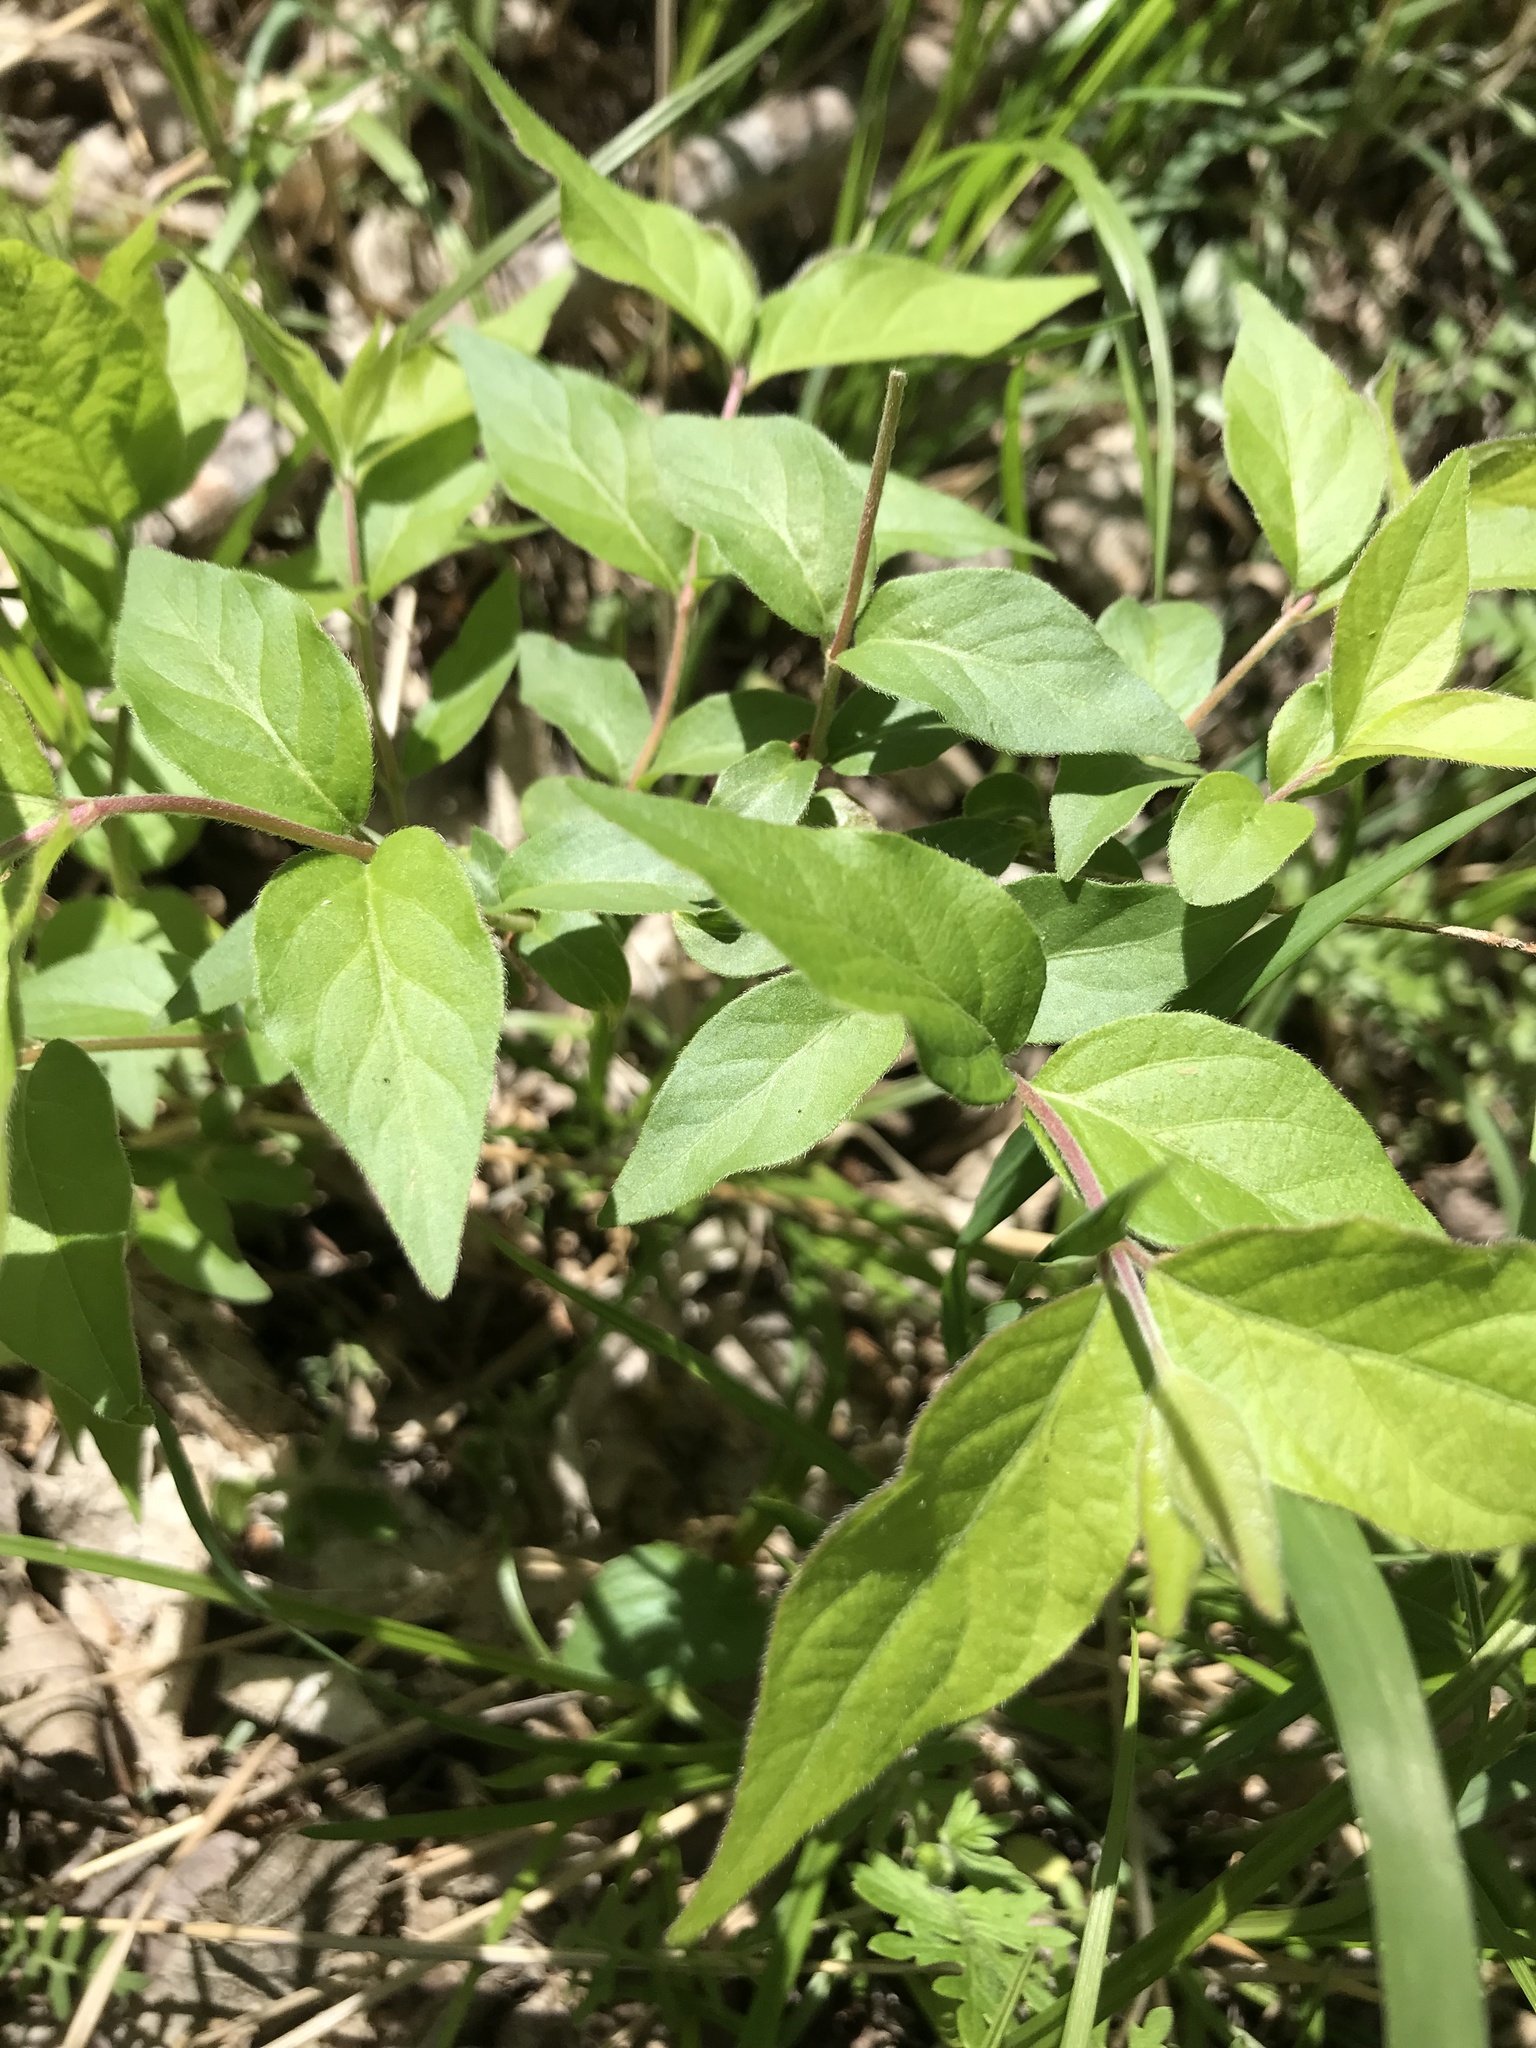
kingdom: Plantae
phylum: Tracheophyta
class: Magnoliopsida
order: Dipsacales
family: Caprifoliaceae
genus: Lonicera
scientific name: Lonicera maackii
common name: Amur honeysuckle
